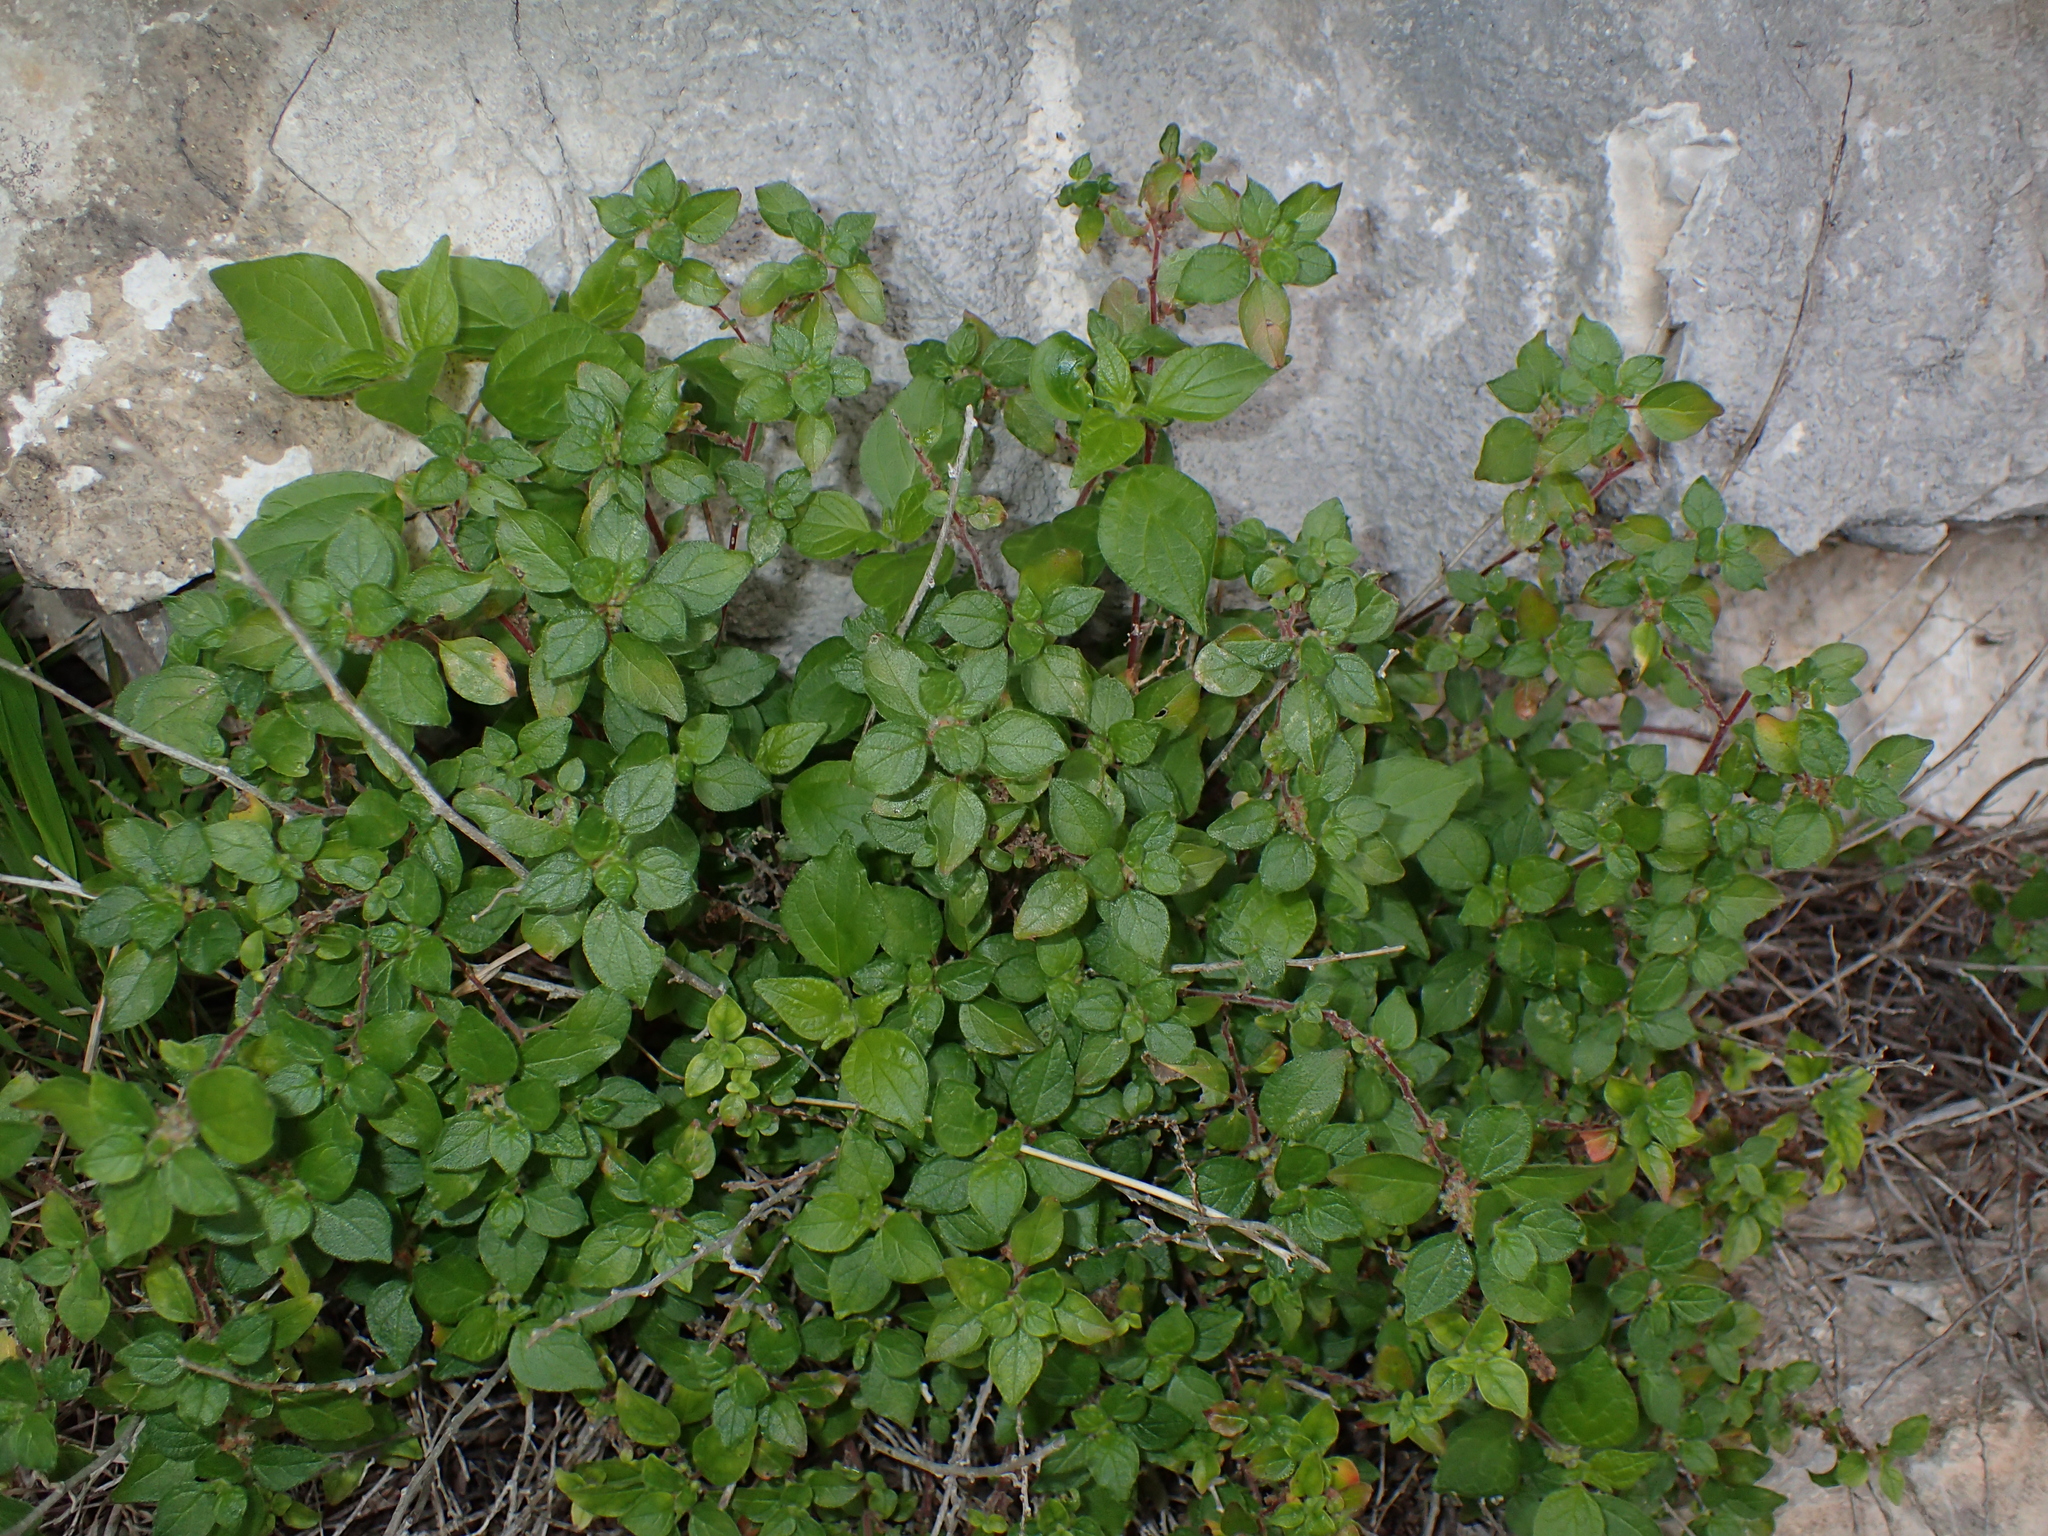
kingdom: Plantae
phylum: Tracheophyta
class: Magnoliopsida
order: Rosales
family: Urticaceae
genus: Parietaria
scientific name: Parietaria judaica
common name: Pellitory-of-the-wall
